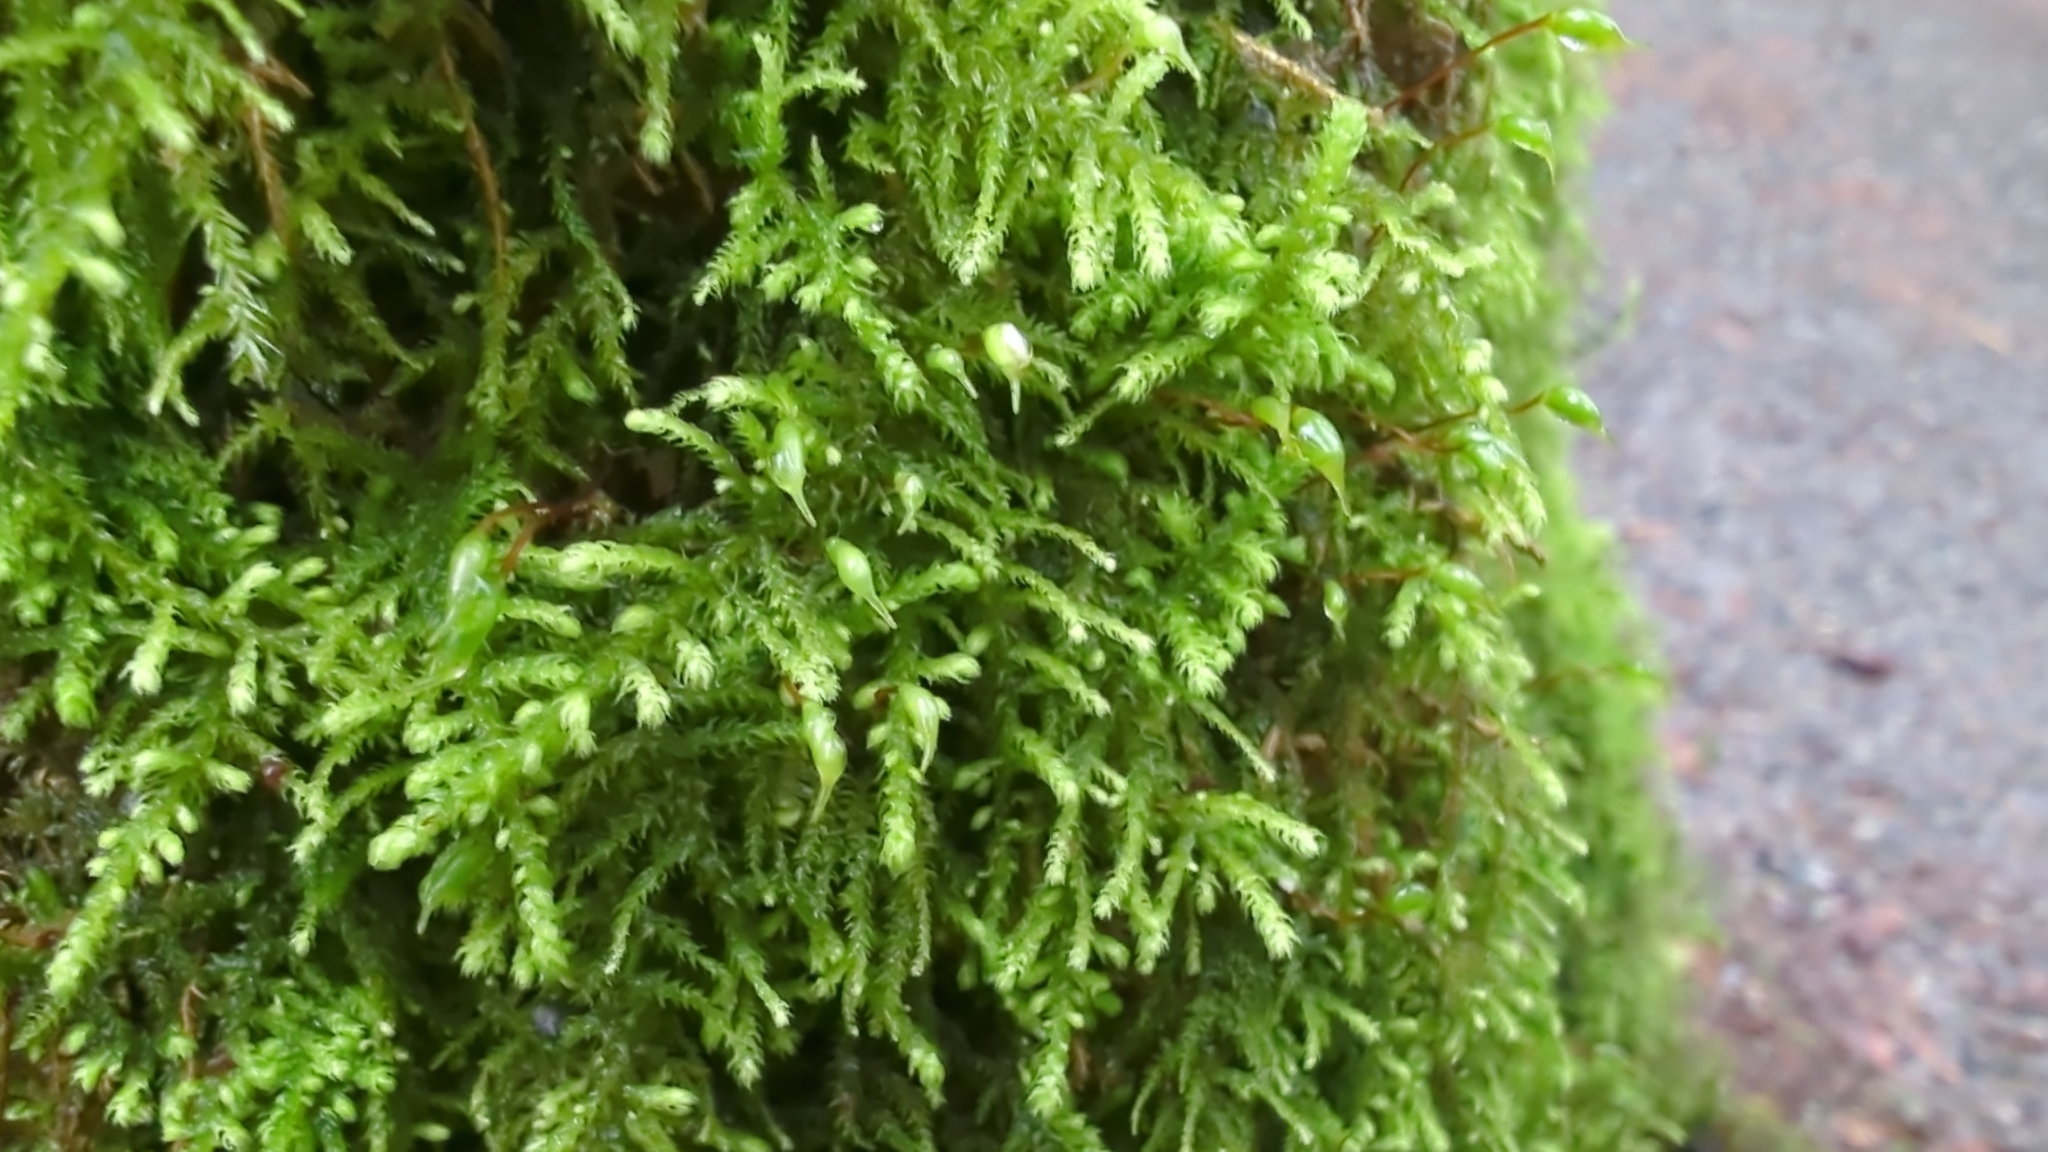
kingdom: Plantae
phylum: Bryophyta
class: Bryopsida
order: Hypnales
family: Brachytheciaceae
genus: Claopodium
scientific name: Claopodium crispifolium
